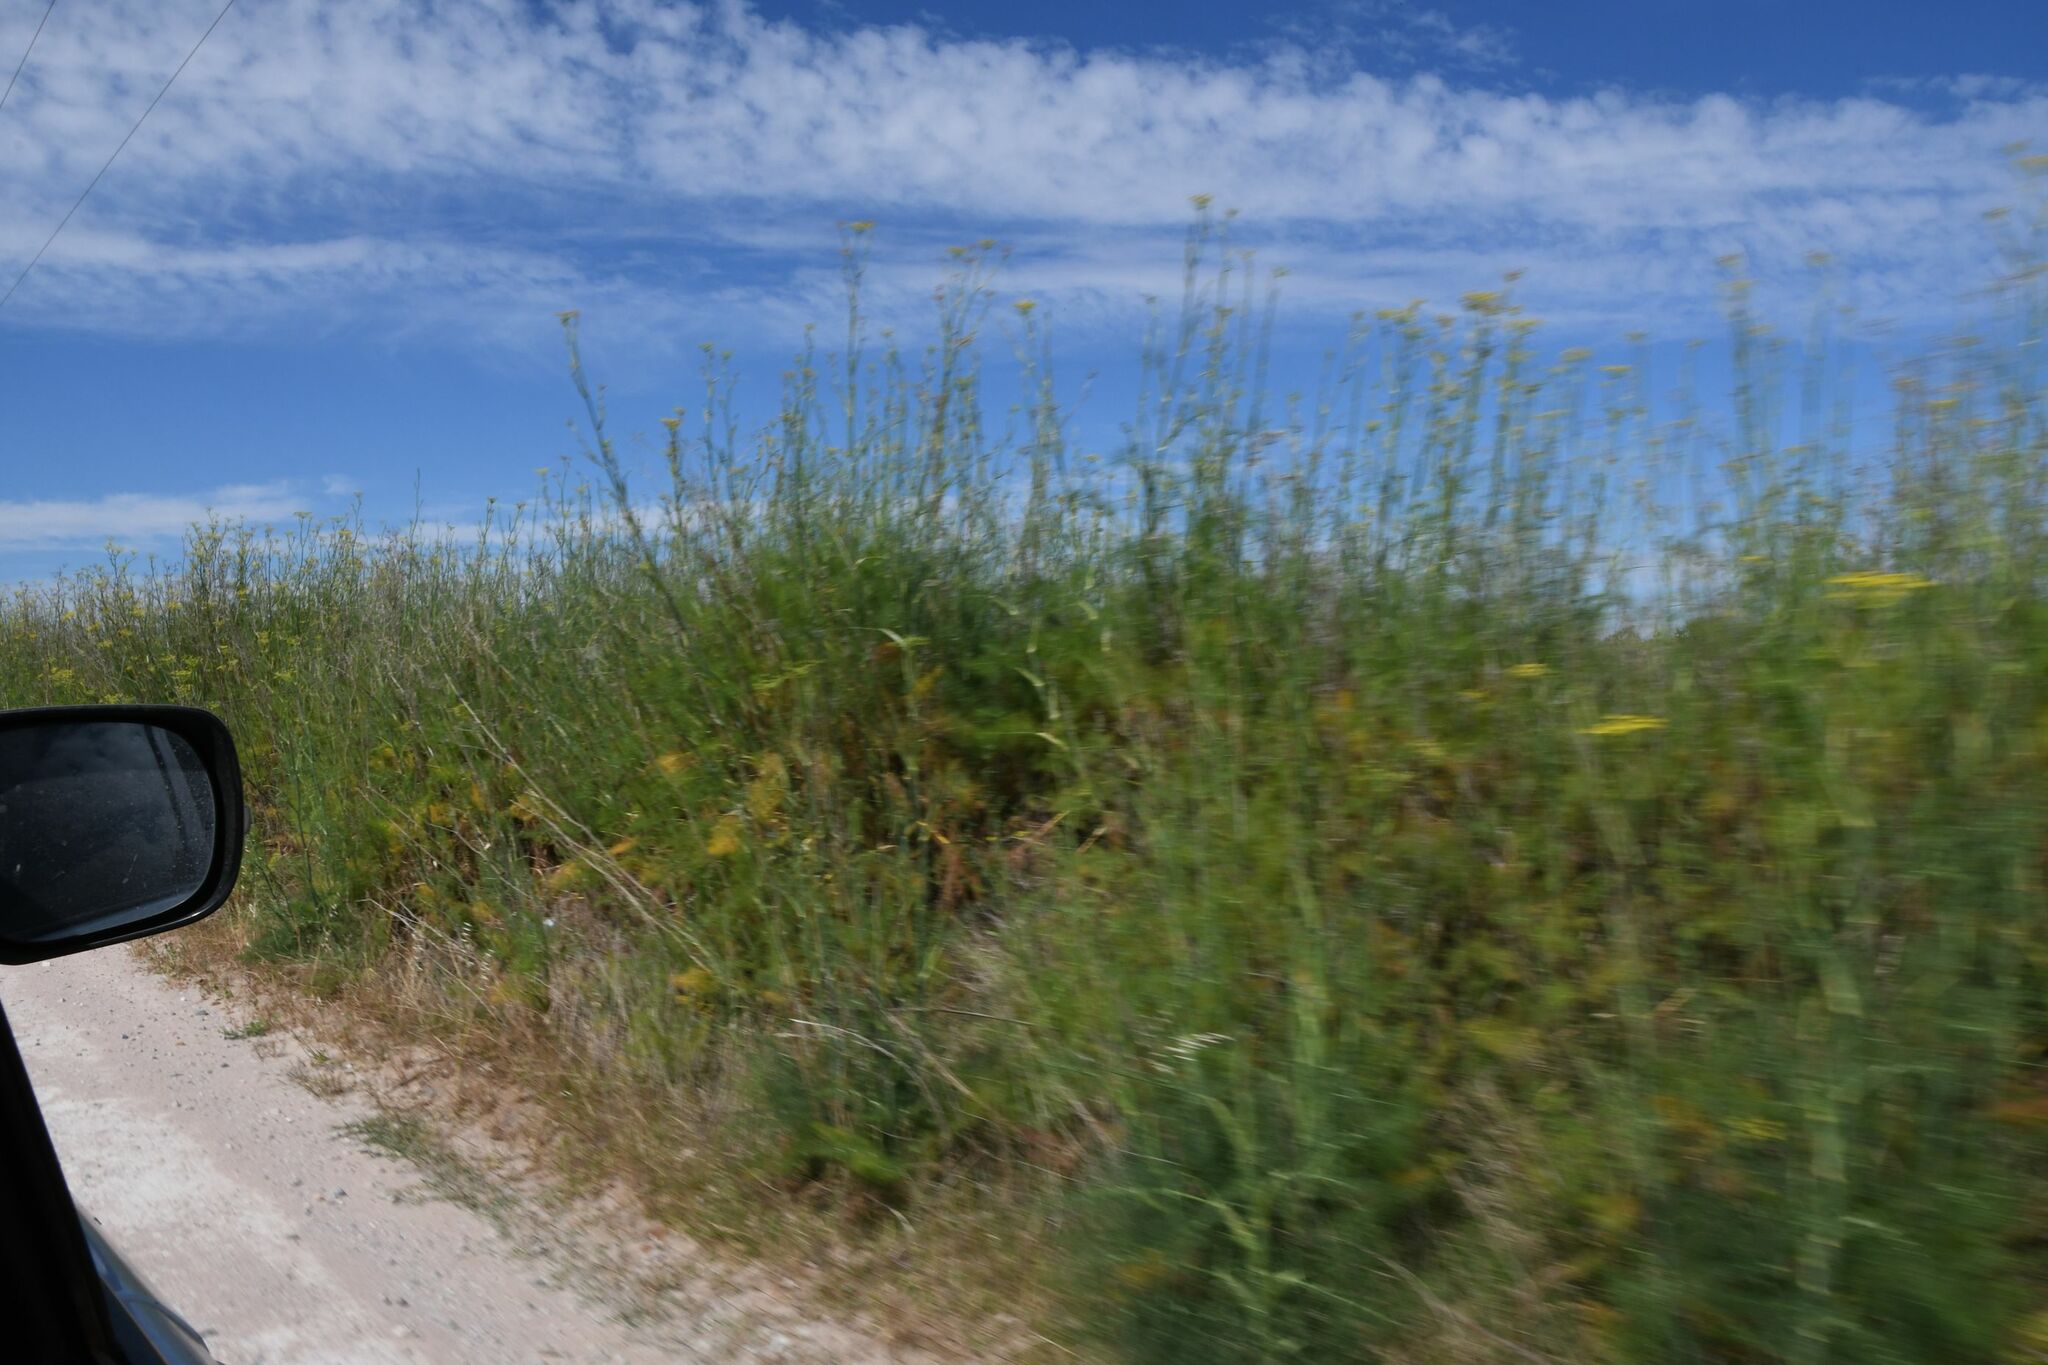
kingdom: Plantae
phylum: Tracheophyta
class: Magnoliopsida
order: Apiales
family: Apiaceae
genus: Foeniculum
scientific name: Foeniculum vulgare
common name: Fennel
